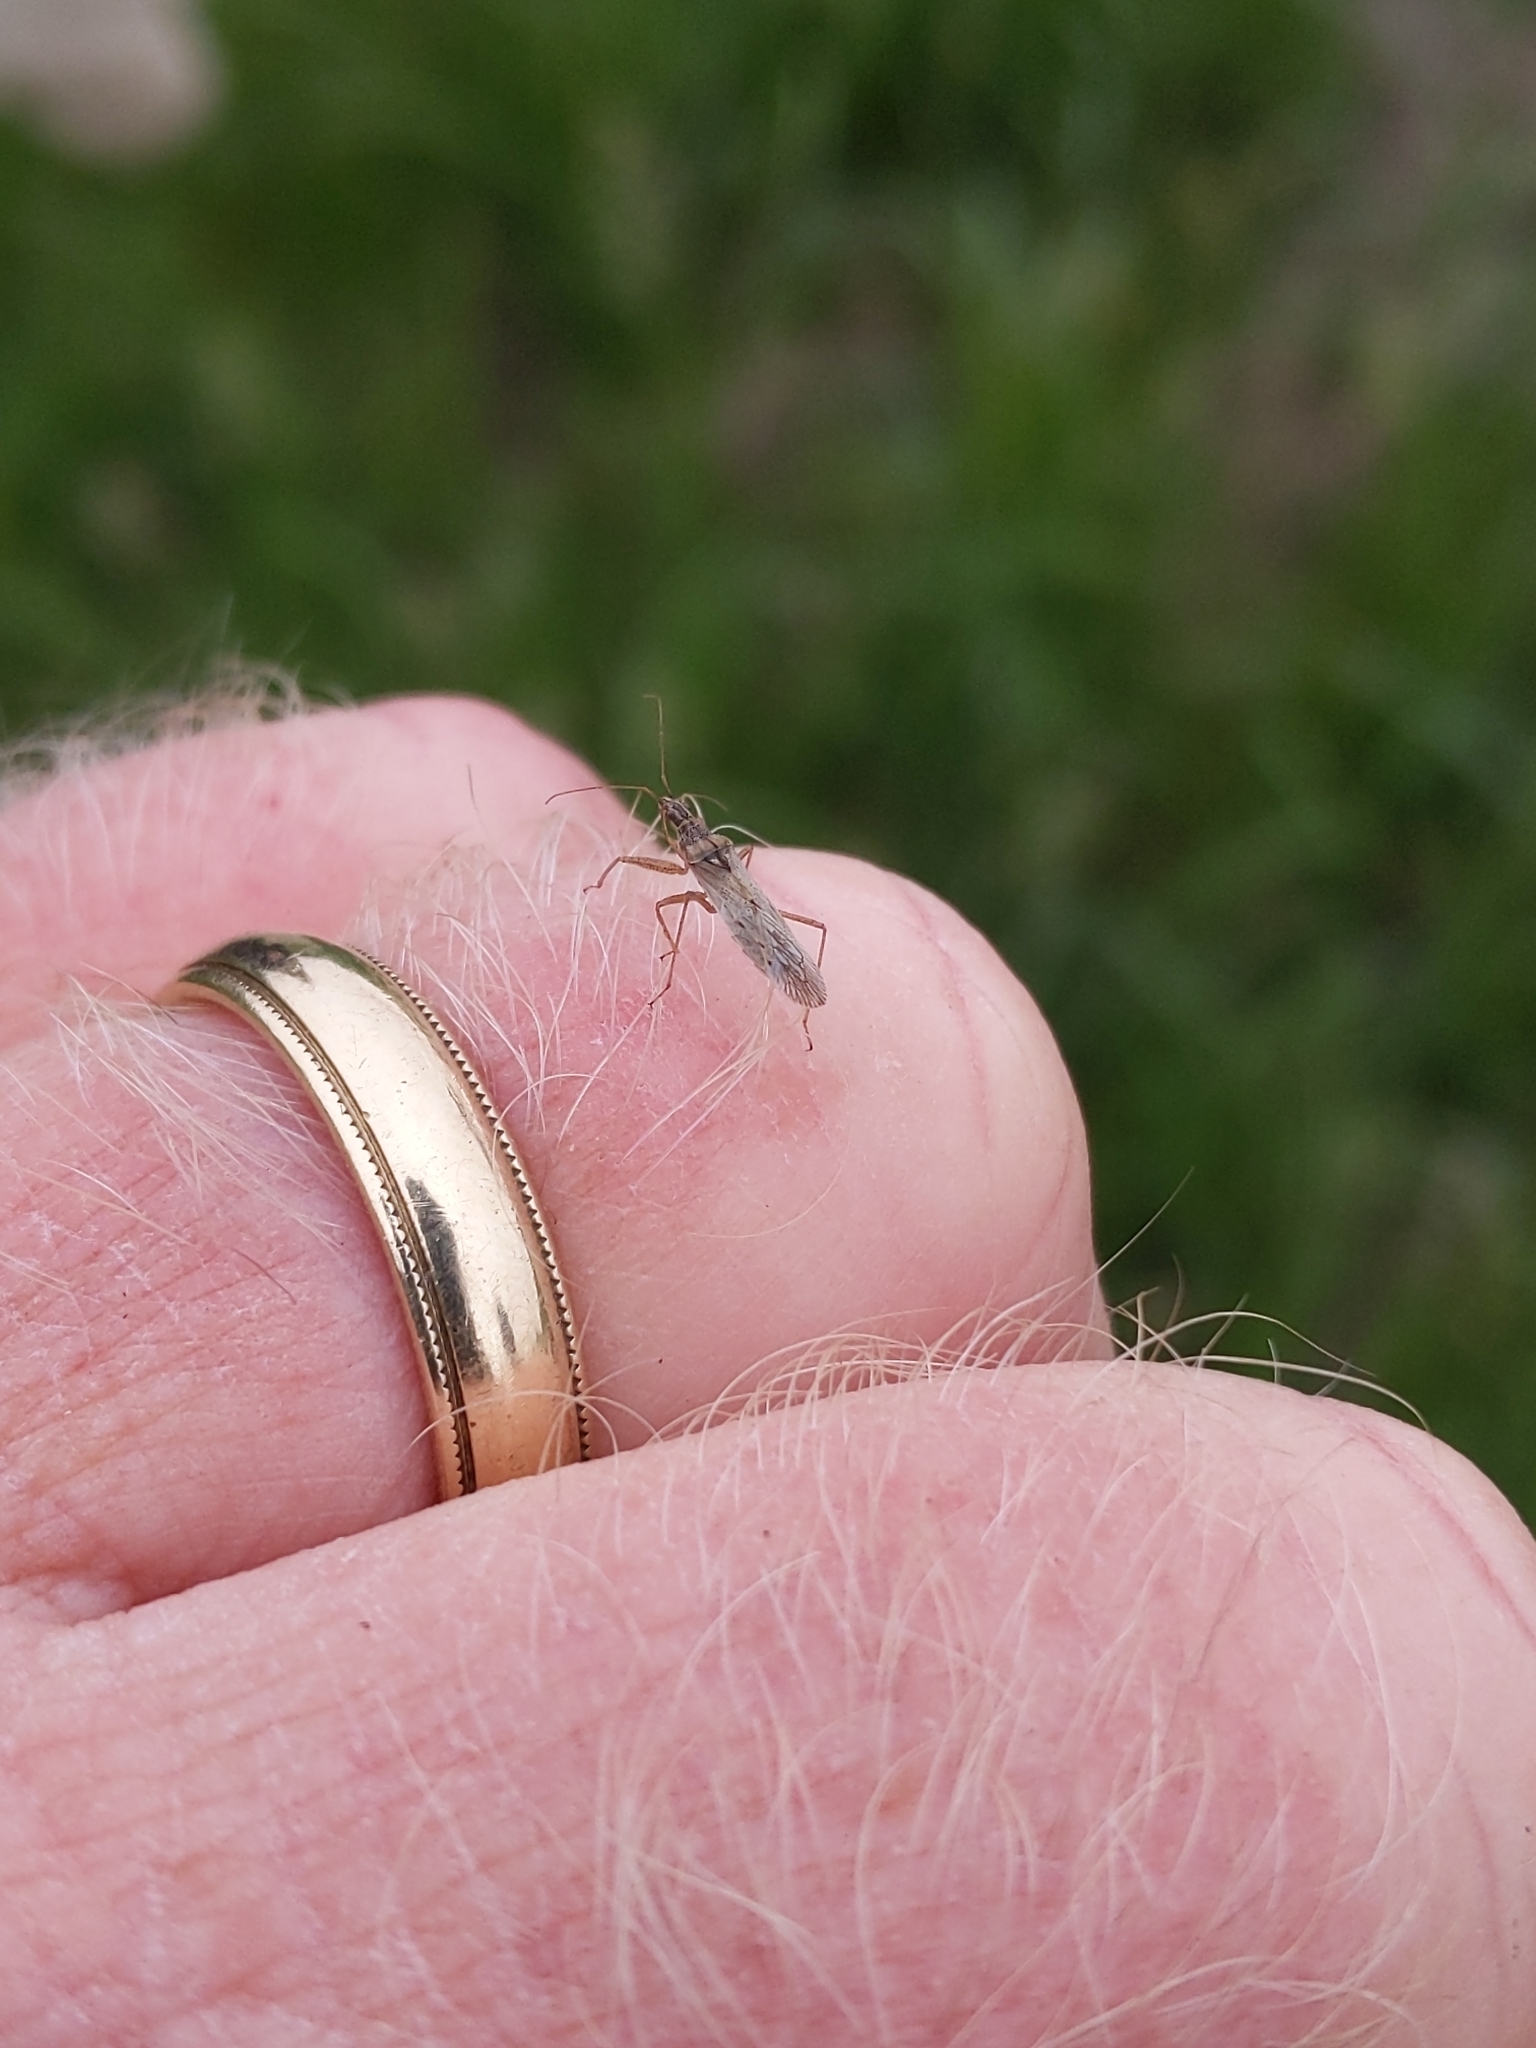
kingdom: Animalia
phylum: Arthropoda
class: Insecta
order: Hemiptera
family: Nabidae
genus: Nabis
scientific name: Nabis americoferus
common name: Common damsel bug
